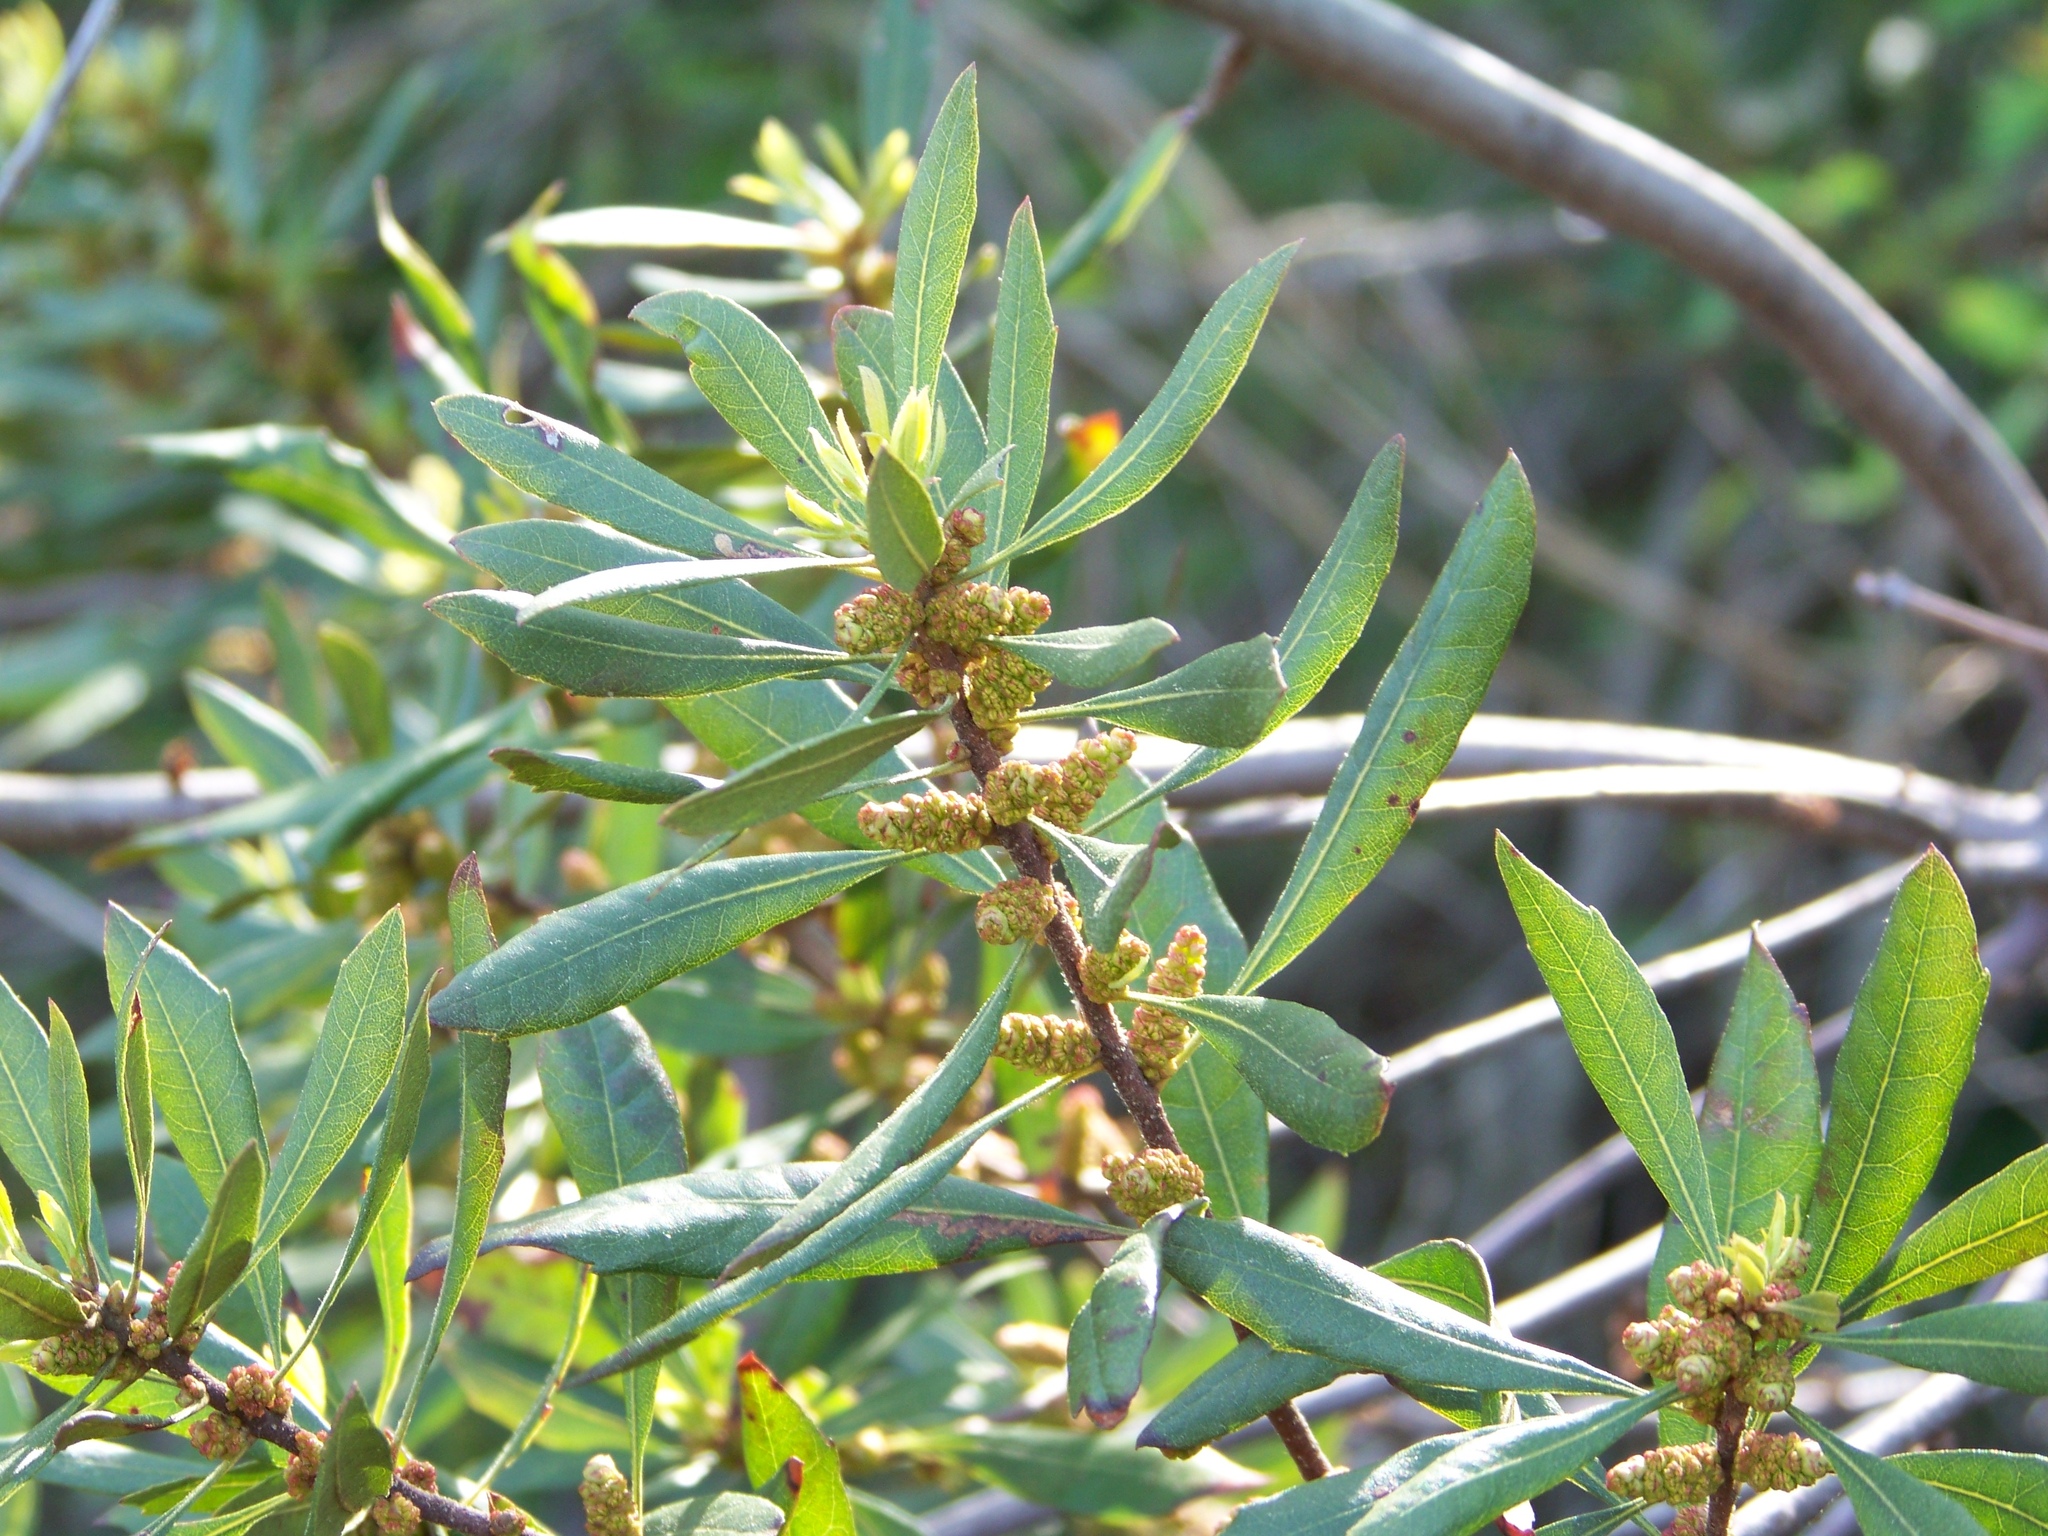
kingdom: Plantae
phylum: Tracheophyta
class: Magnoliopsida
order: Fagales
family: Myricaceae
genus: Morella
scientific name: Morella cerifera
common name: Wax myrtle
